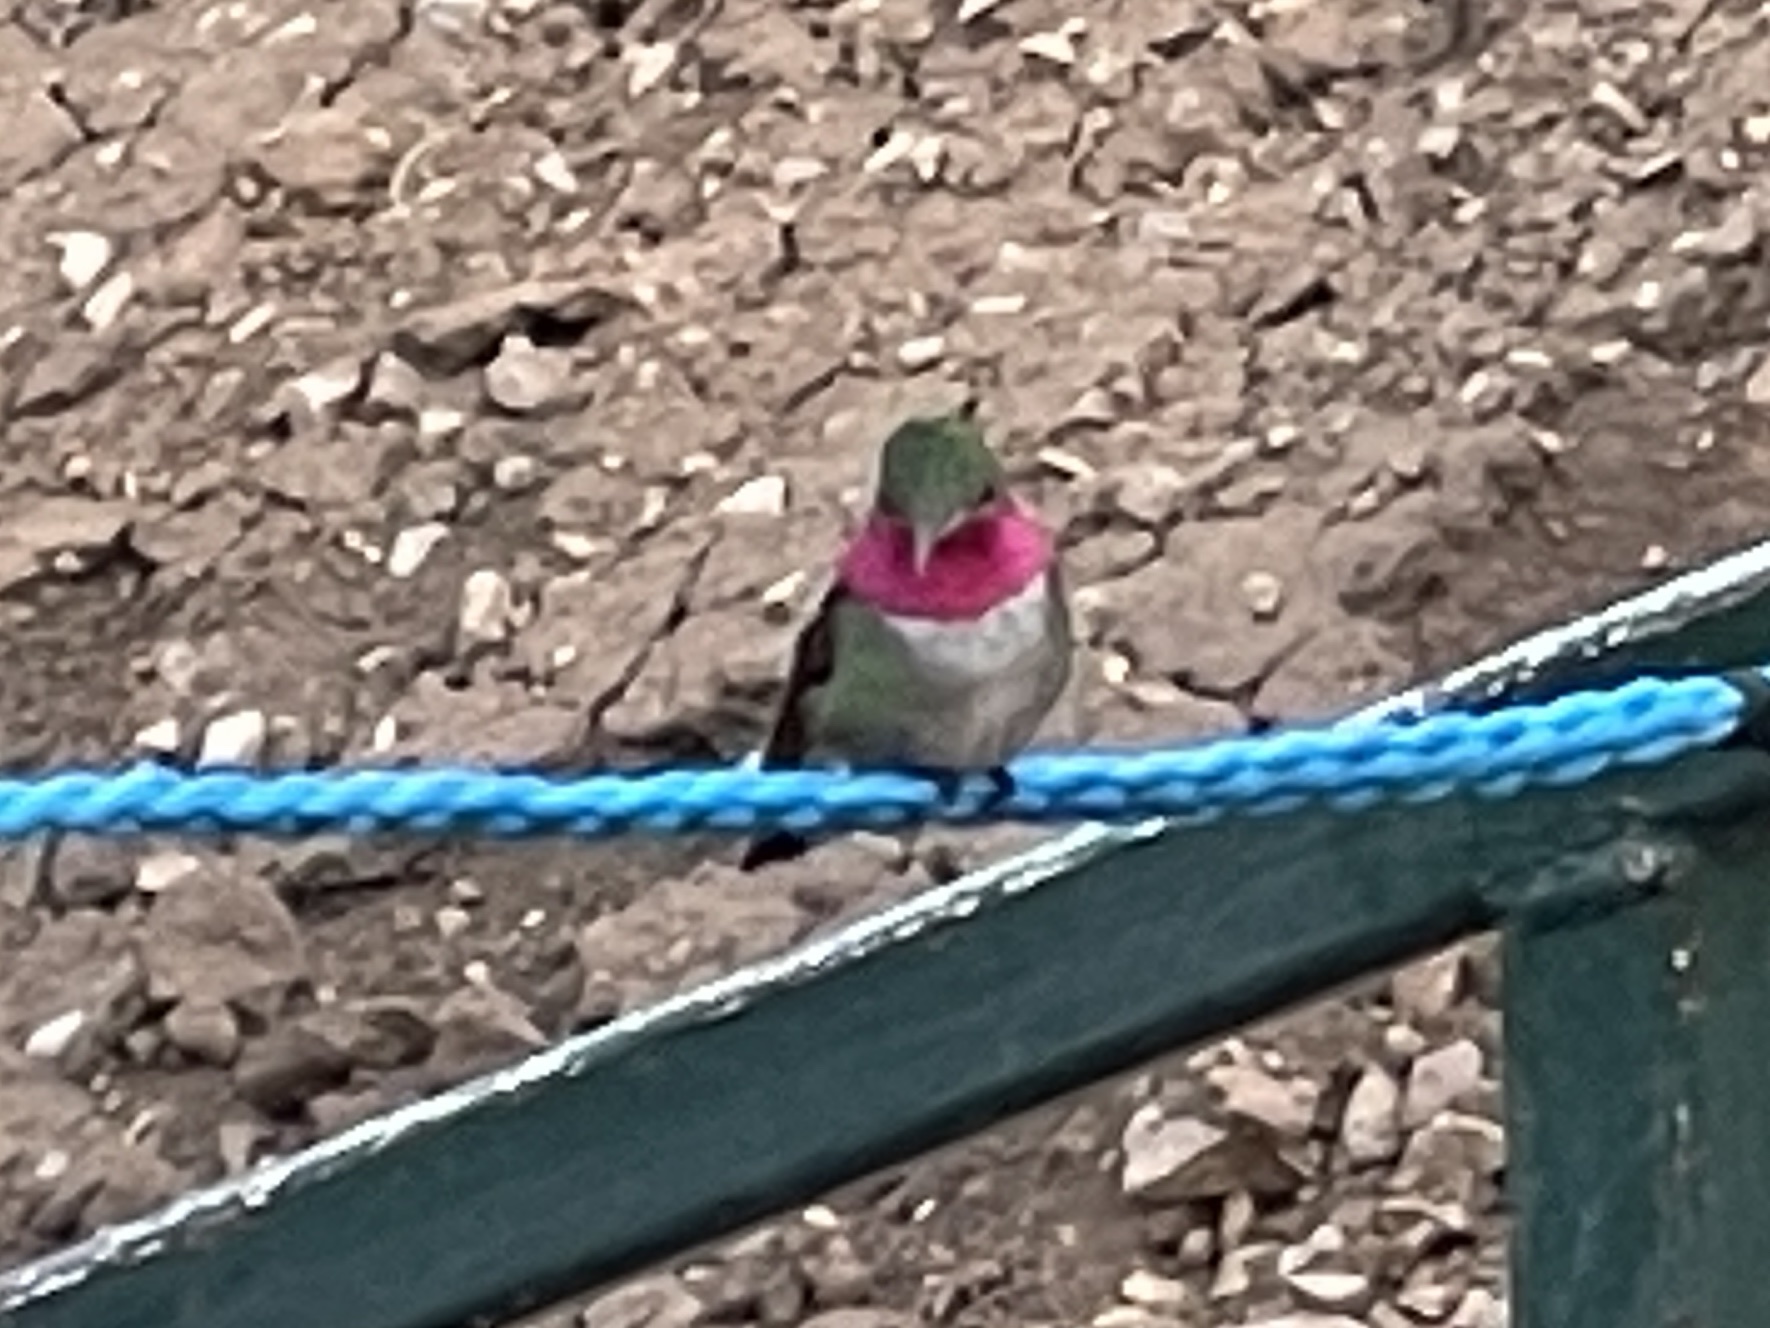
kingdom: Animalia
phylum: Chordata
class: Aves
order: Apodiformes
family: Trochilidae
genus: Selasphorus
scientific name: Selasphorus platycercus
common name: Broad-tailed hummingbird
